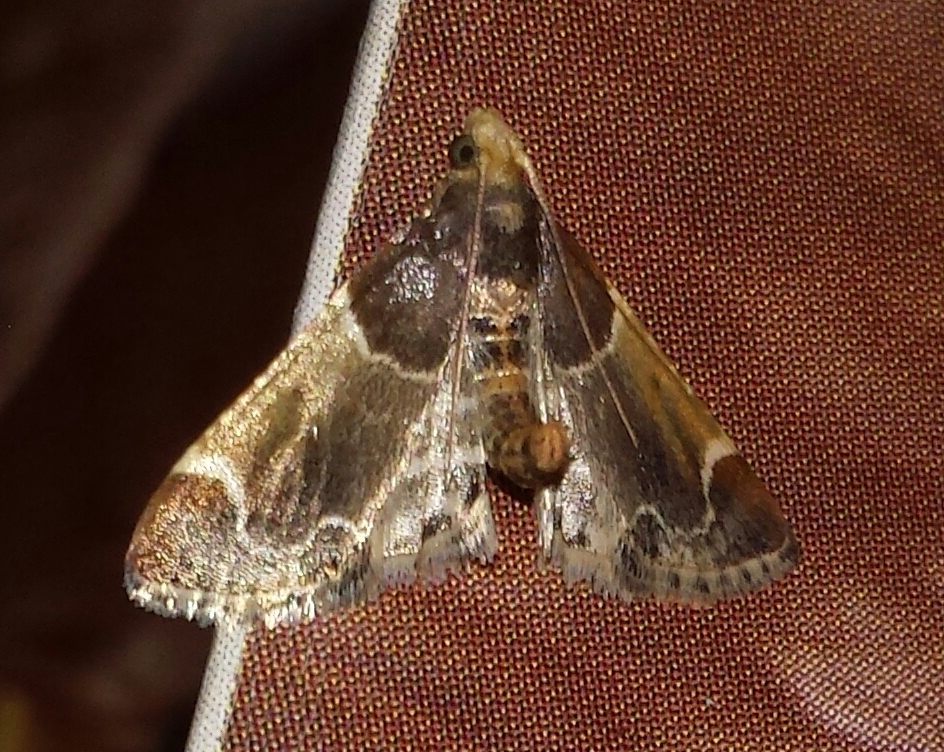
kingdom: Animalia
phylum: Arthropoda
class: Insecta
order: Lepidoptera
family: Pyralidae
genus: Pyralis
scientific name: Pyralis farinalis
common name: Meal moth
